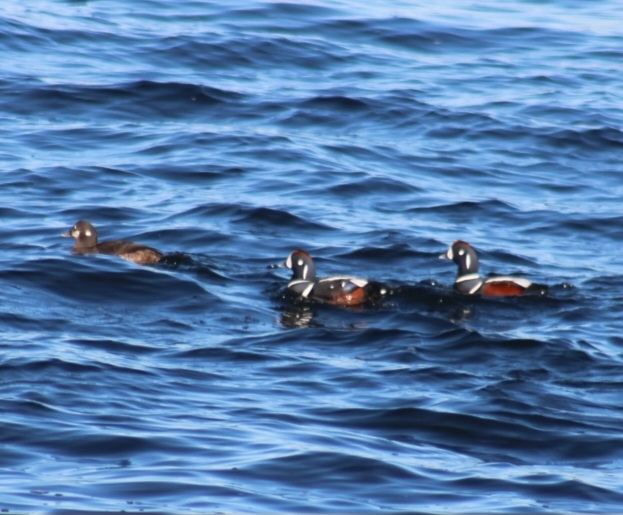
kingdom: Animalia
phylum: Chordata
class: Aves
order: Anseriformes
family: Anatidae
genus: Histrionicus
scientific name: Histrionicus histrionicus
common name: Harlequin duck
